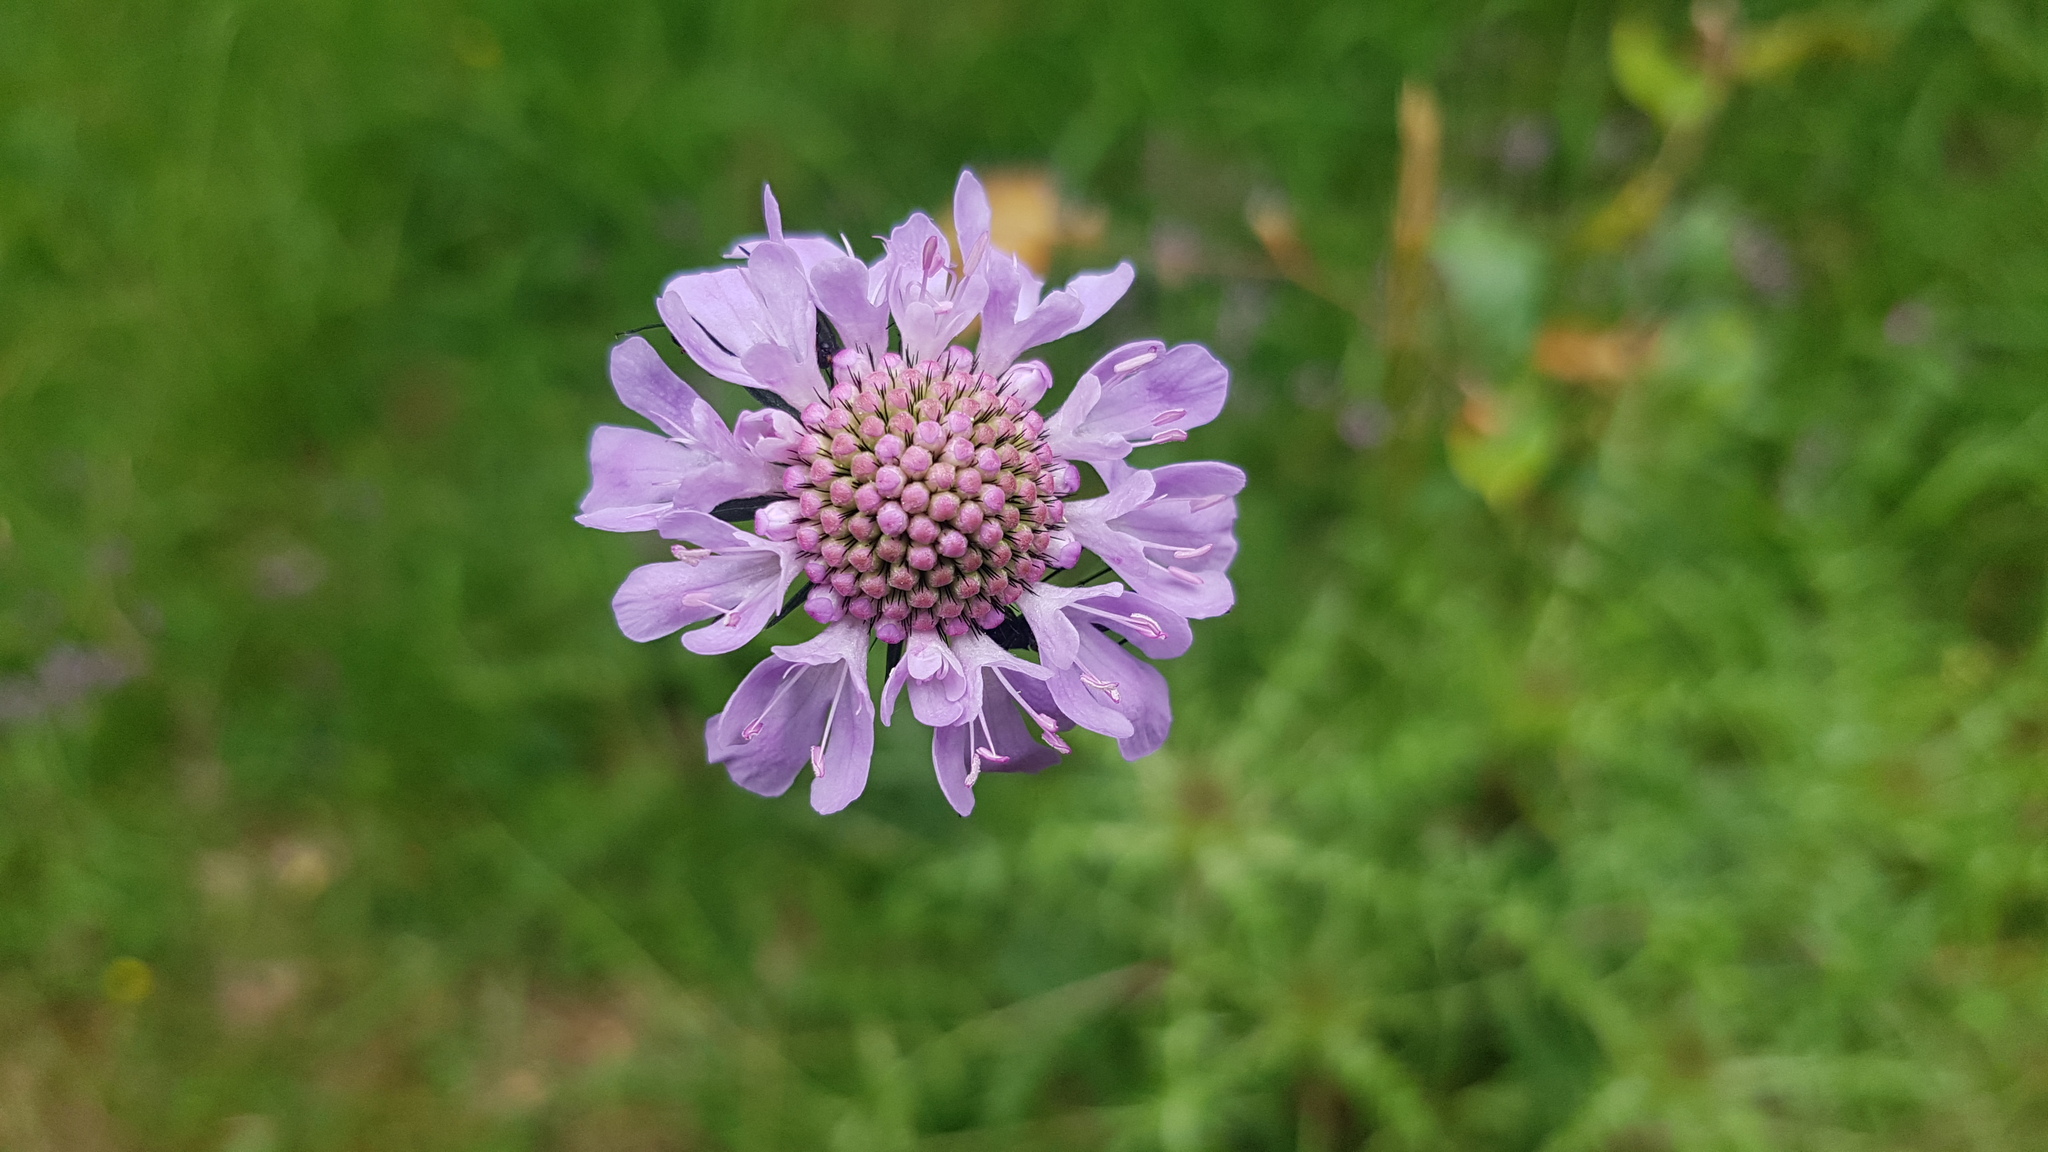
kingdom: Plantae
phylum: Tracheophyta
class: Magnoliopsida
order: Dipsacales
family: Caprifoliaceae
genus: Scabiosa
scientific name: Scabiosa columbaria
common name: Small scabious
